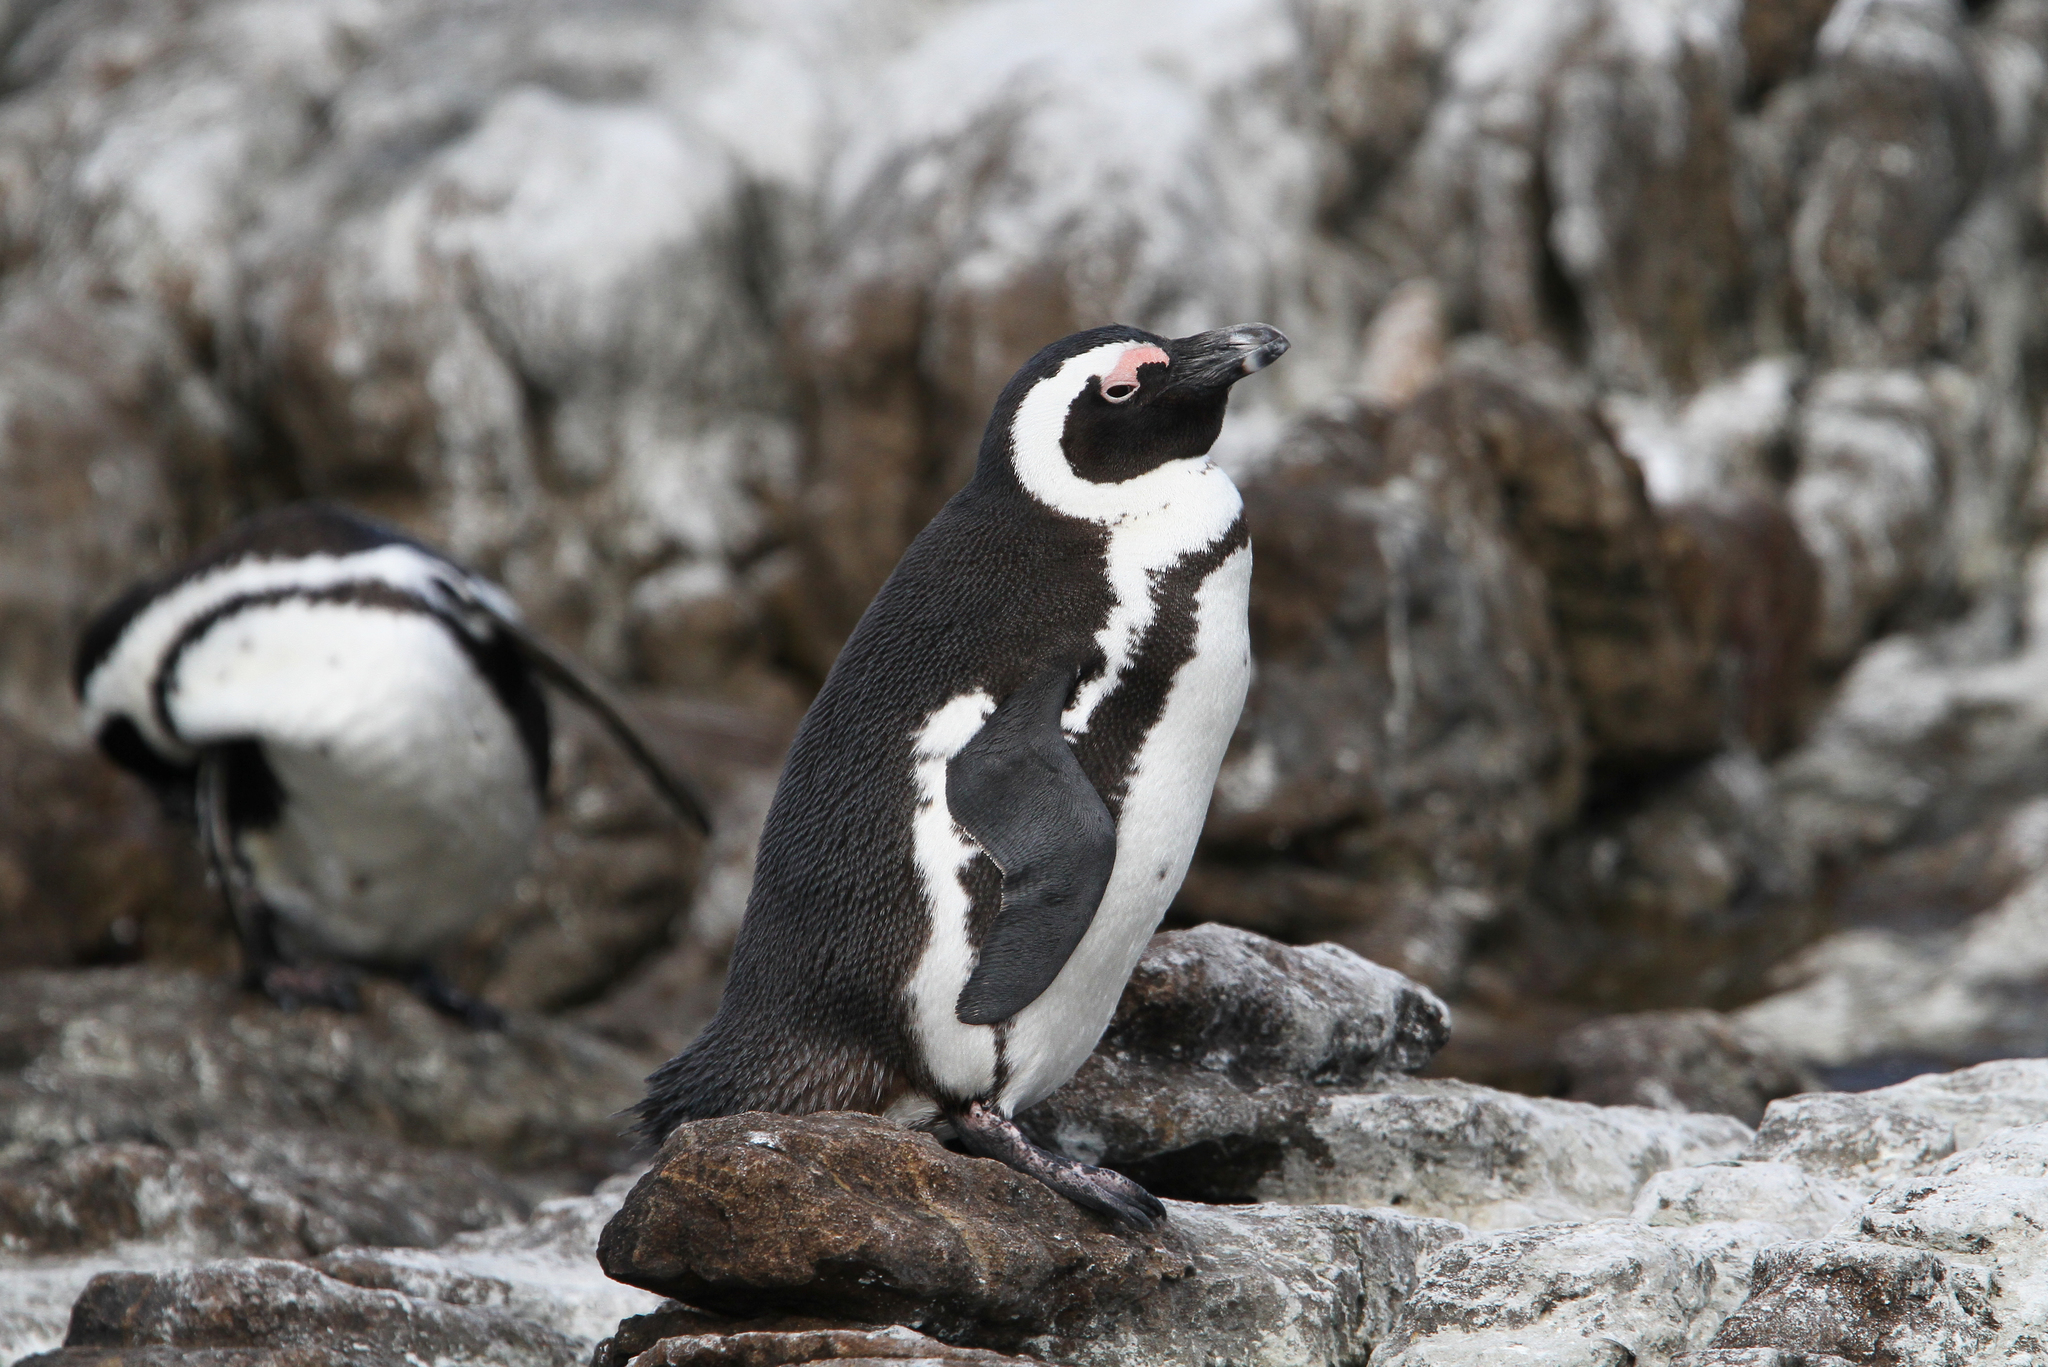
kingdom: Animalia
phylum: Chordata
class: Aves
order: Sphenisciformes
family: Spheniscidae
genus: Spheniscus
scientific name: Spheniscus demersus
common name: African penguin
